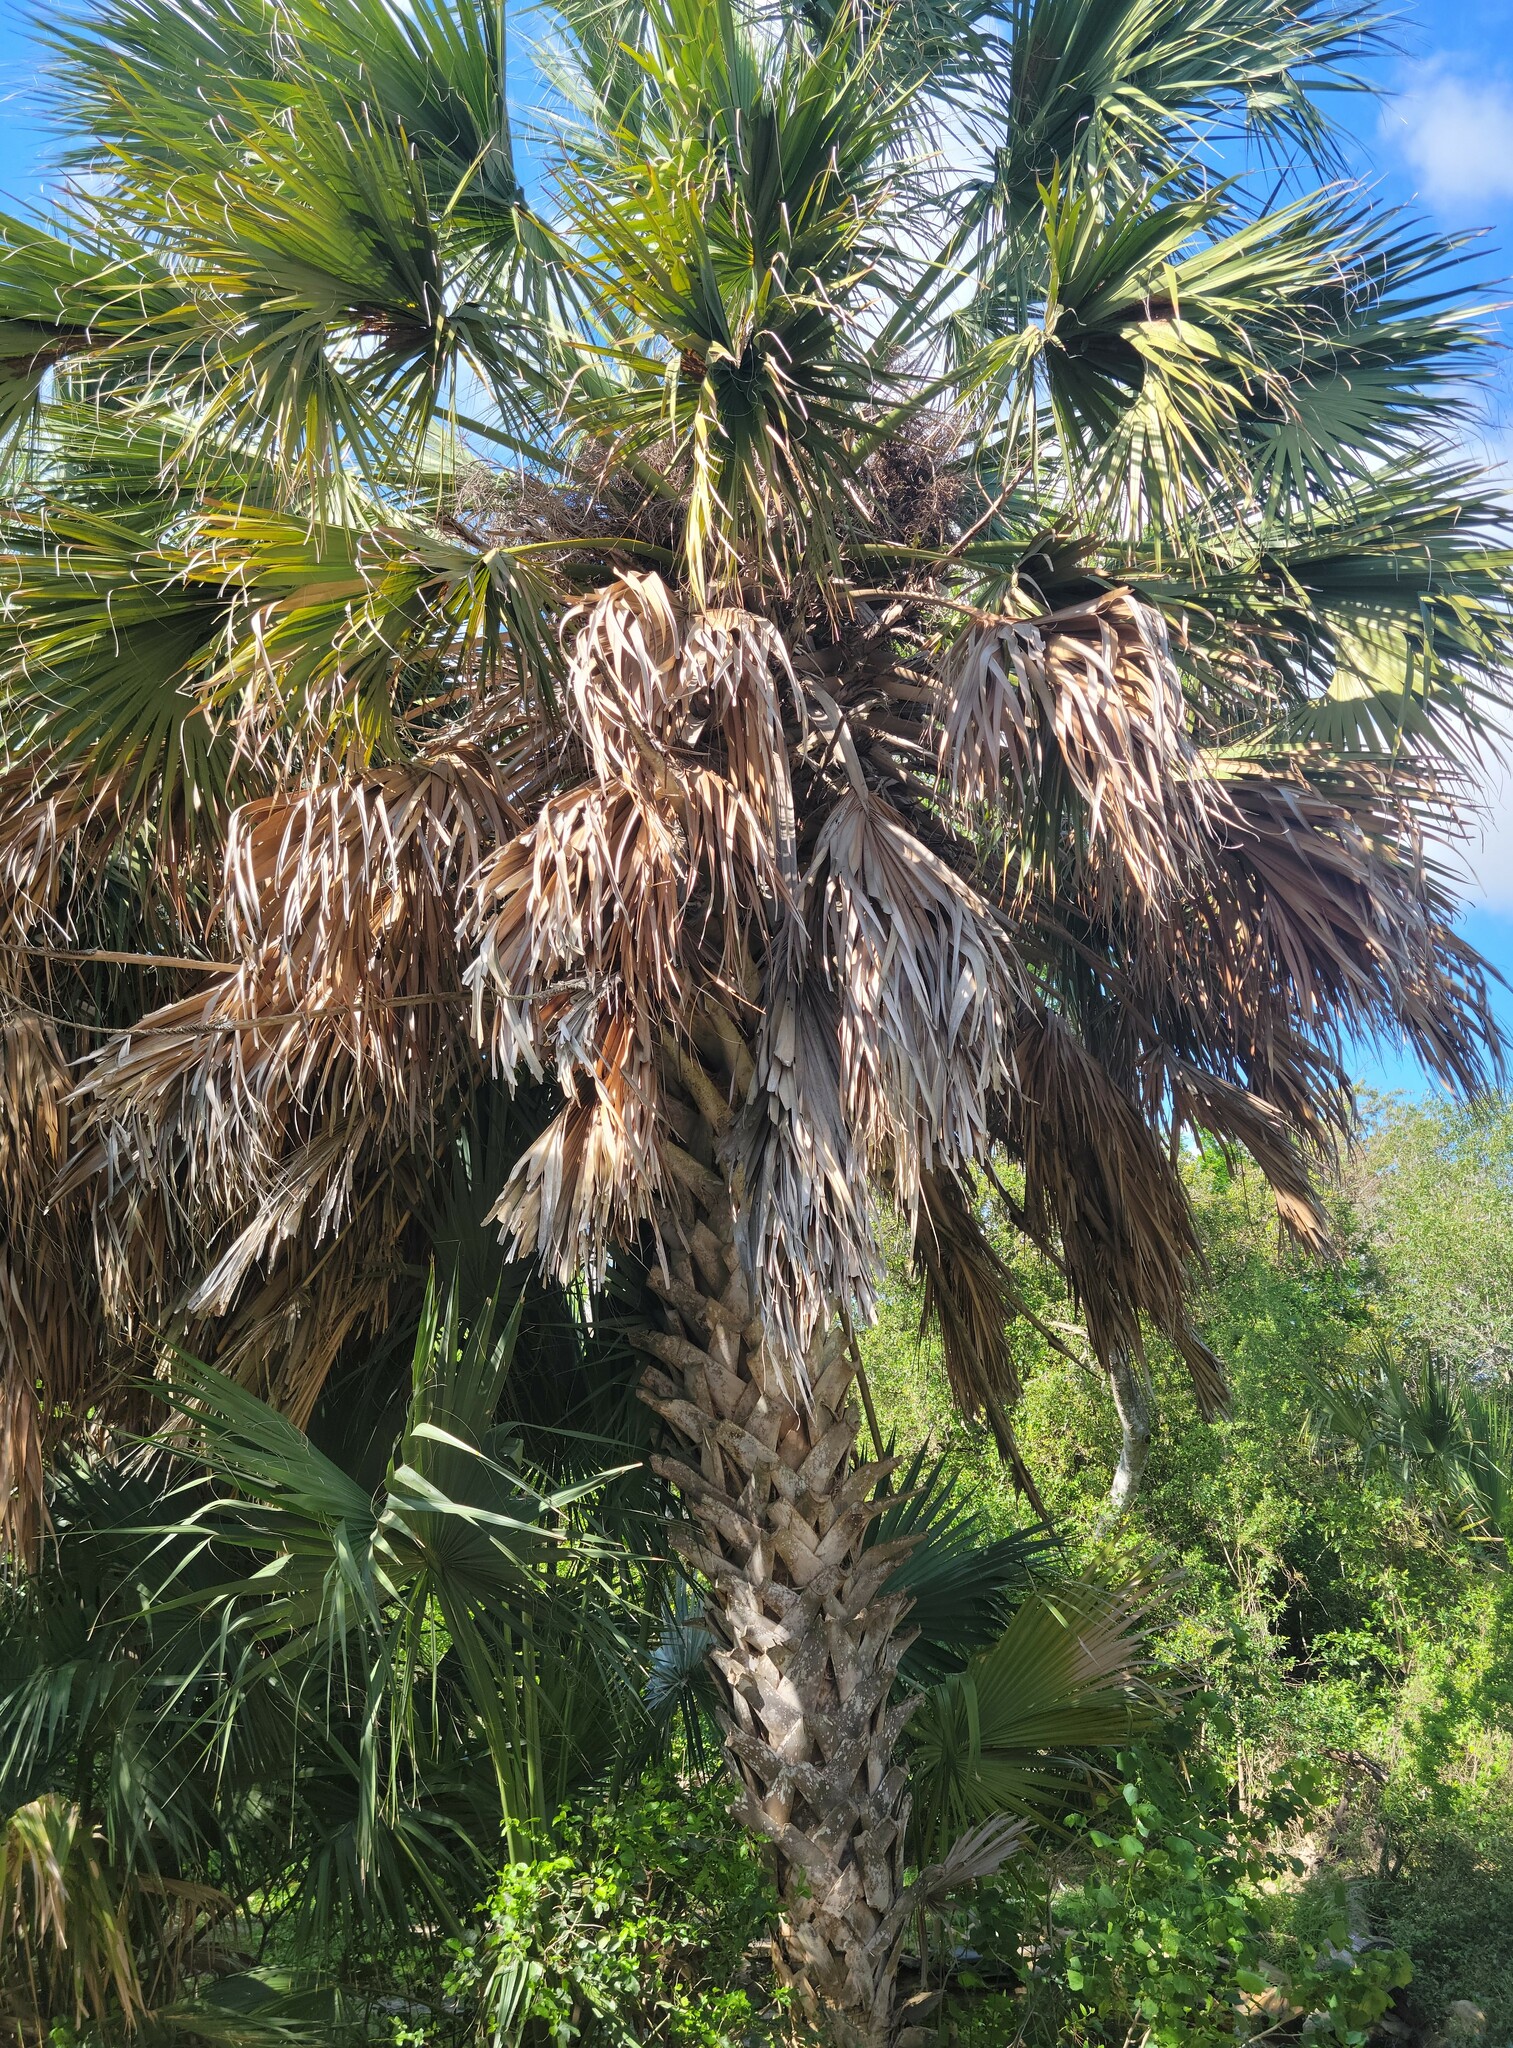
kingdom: Plantae
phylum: Tracheophyta
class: Liliopsida
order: Arecales
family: Arecaceae
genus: Sabal
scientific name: Sabal mexicana
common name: Texas palmetto
